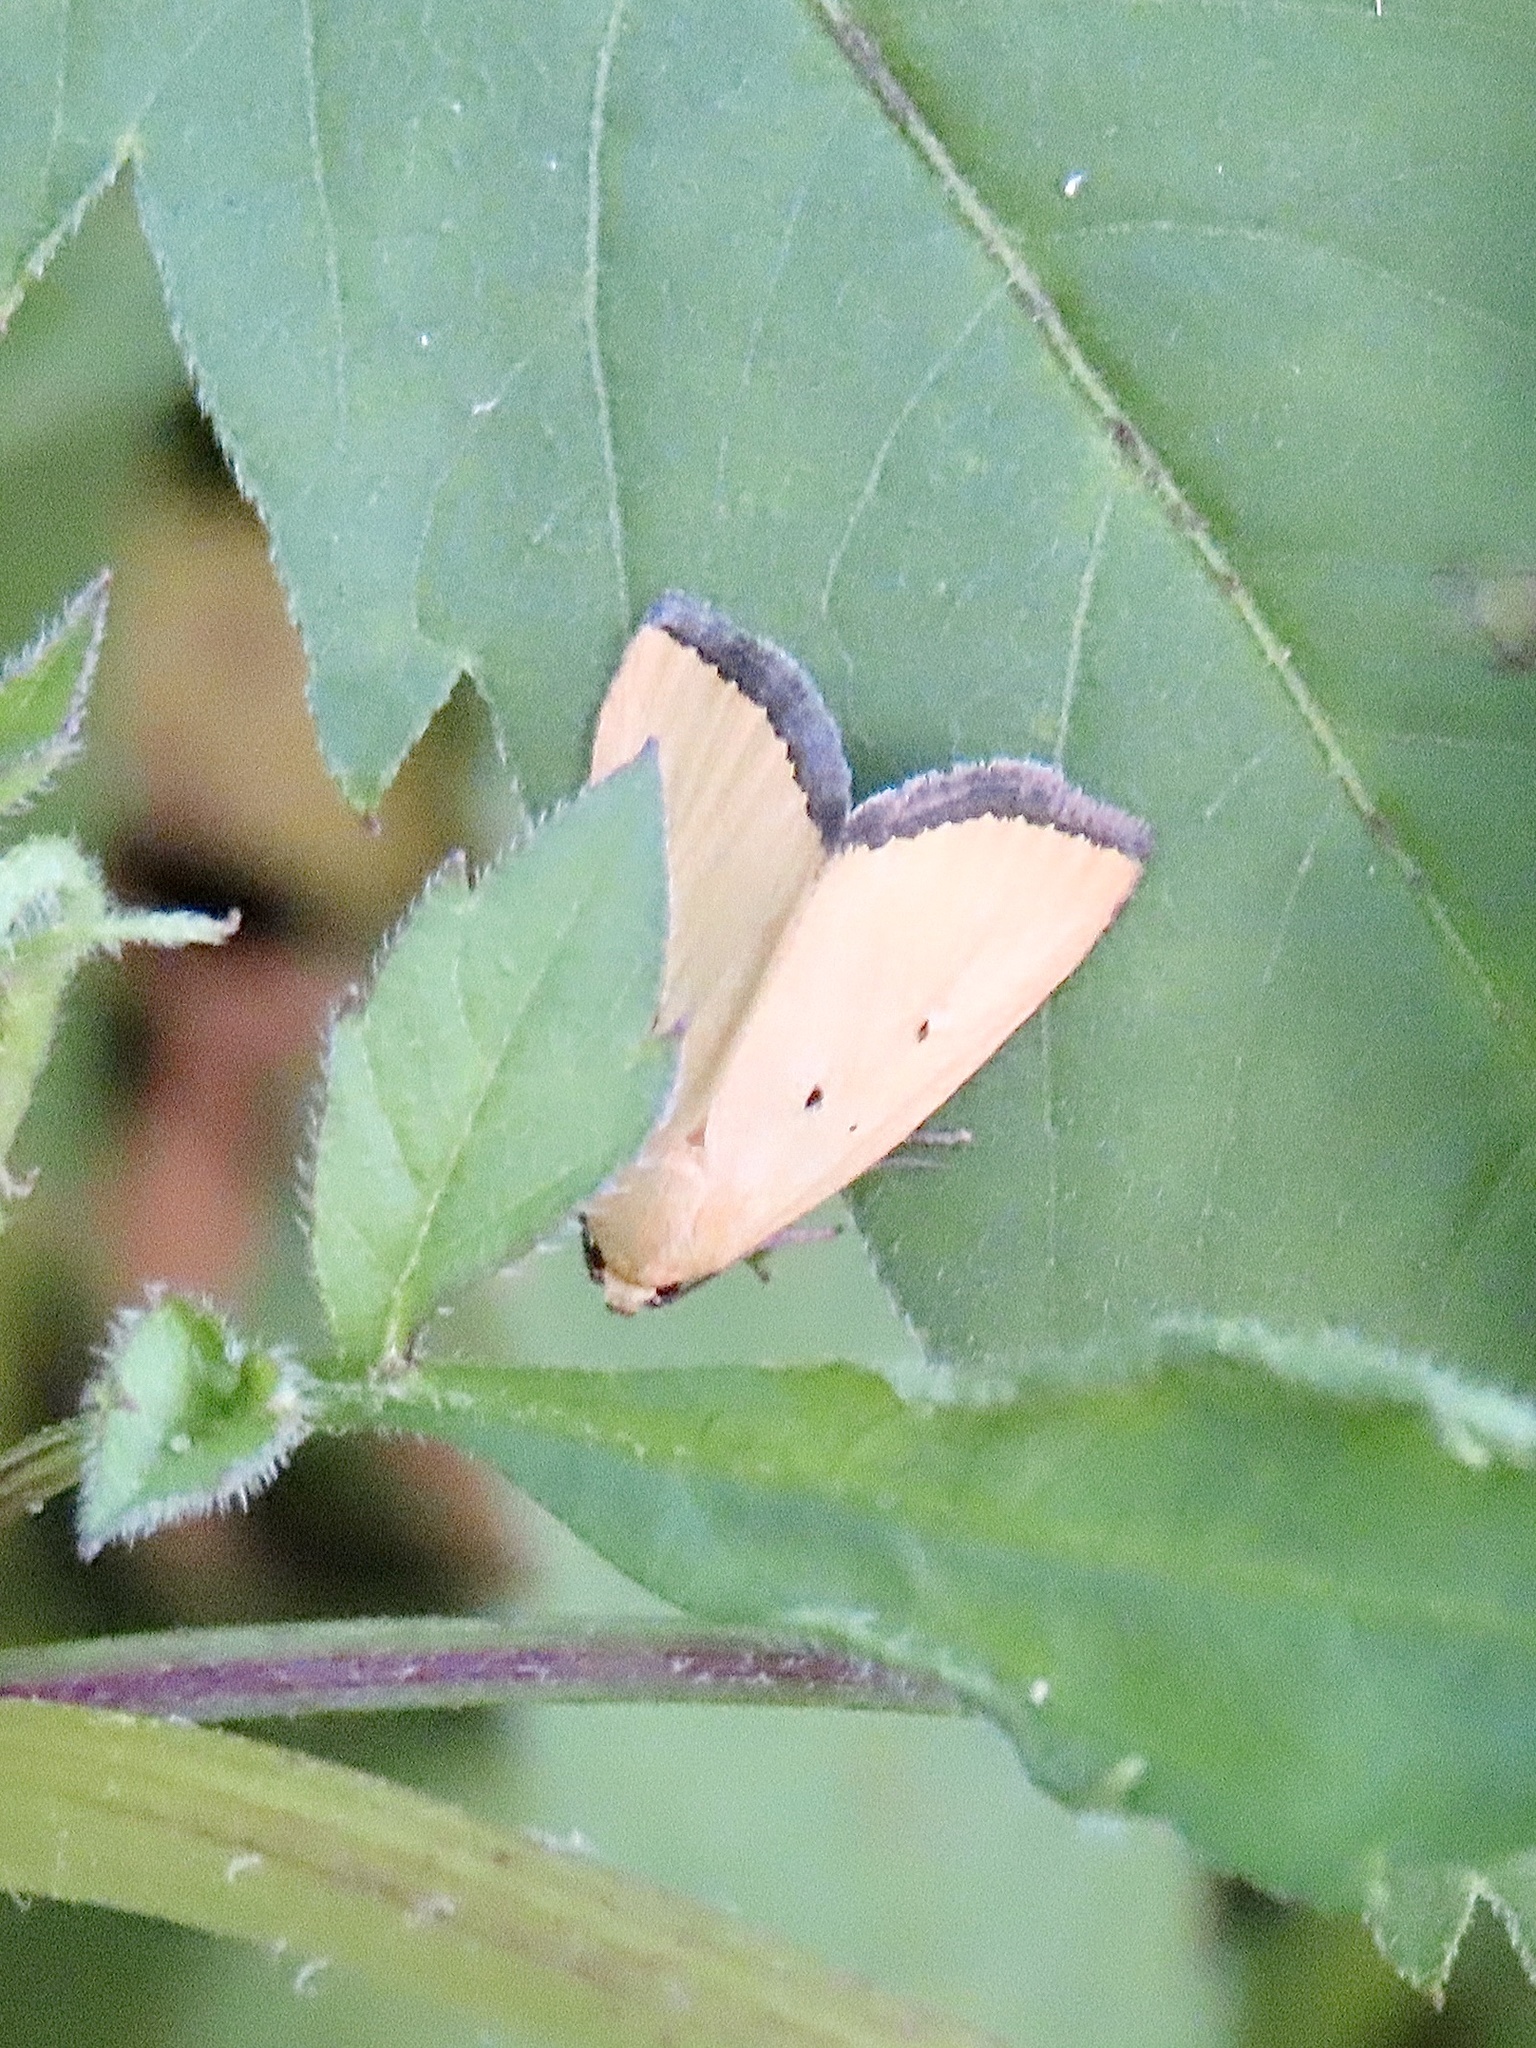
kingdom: Animalia
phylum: Arthropoda
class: Insecta
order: Lepidoptera
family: Noctuidae
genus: Marimatha
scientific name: Marimatha nigrofimbria
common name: Black-bordered lemon moth
